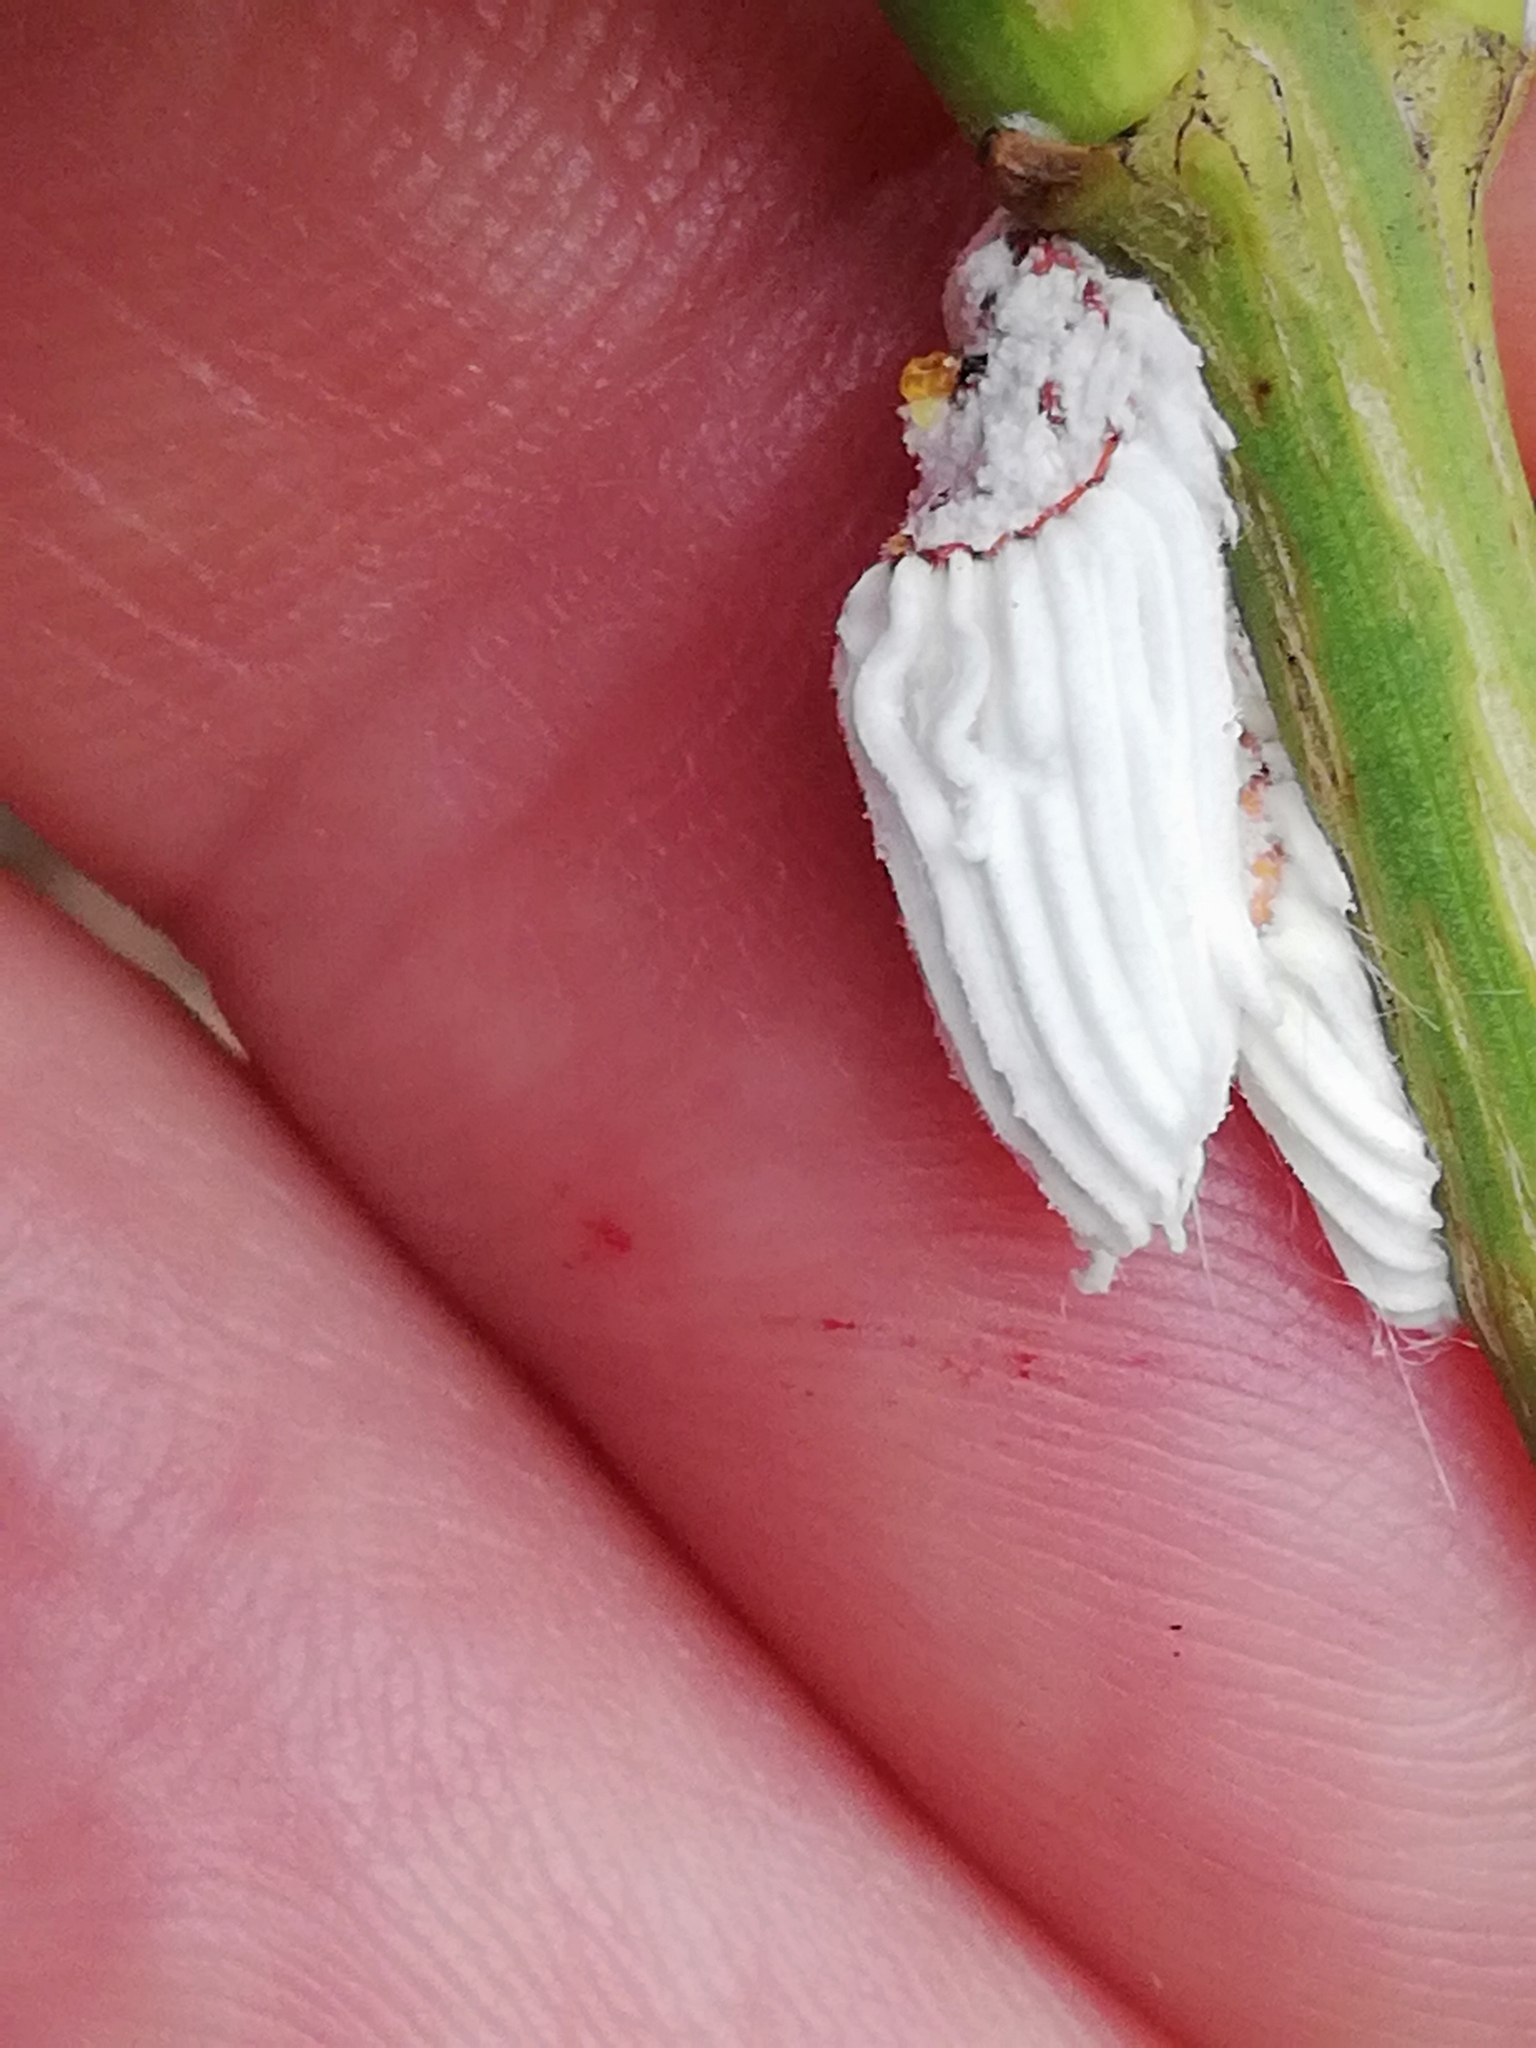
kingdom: Animalia
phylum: Arthropoda
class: Insecta
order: Hemiptera
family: Margarodidae
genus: Icerya
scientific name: Icerya purchasi
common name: Cottony cushion scale
